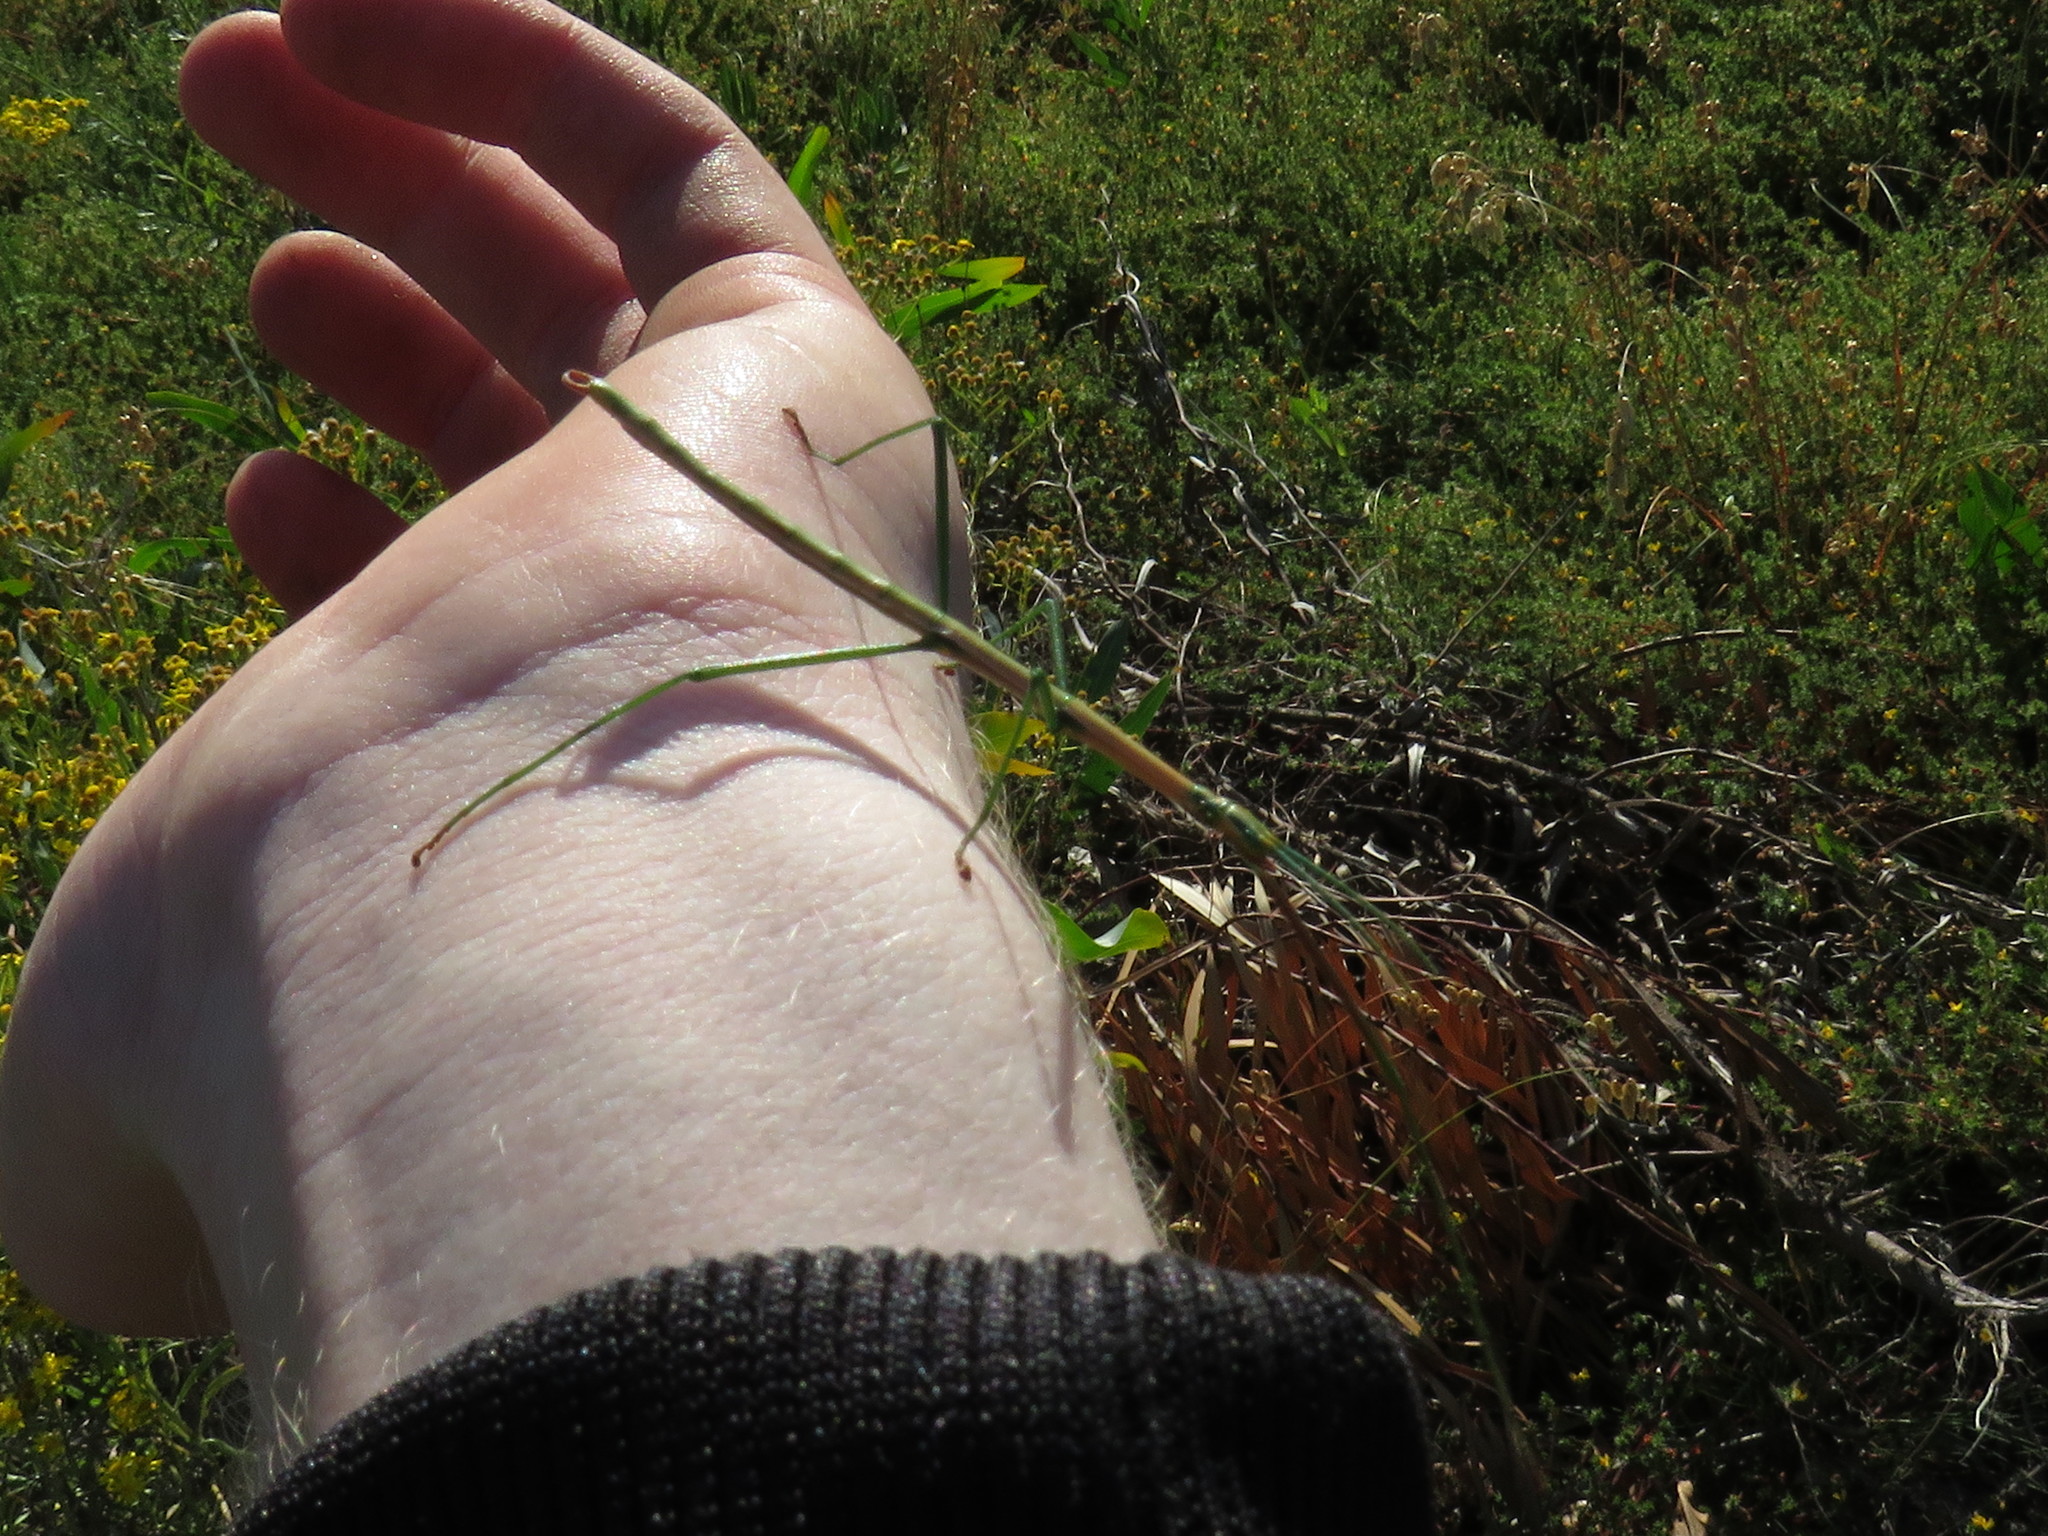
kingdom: Animalia
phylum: Arthropoda
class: Insecta
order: Phasmida
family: Bacillidae
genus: Macynia
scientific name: Macynia labiata
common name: Thunberg's stick insect
